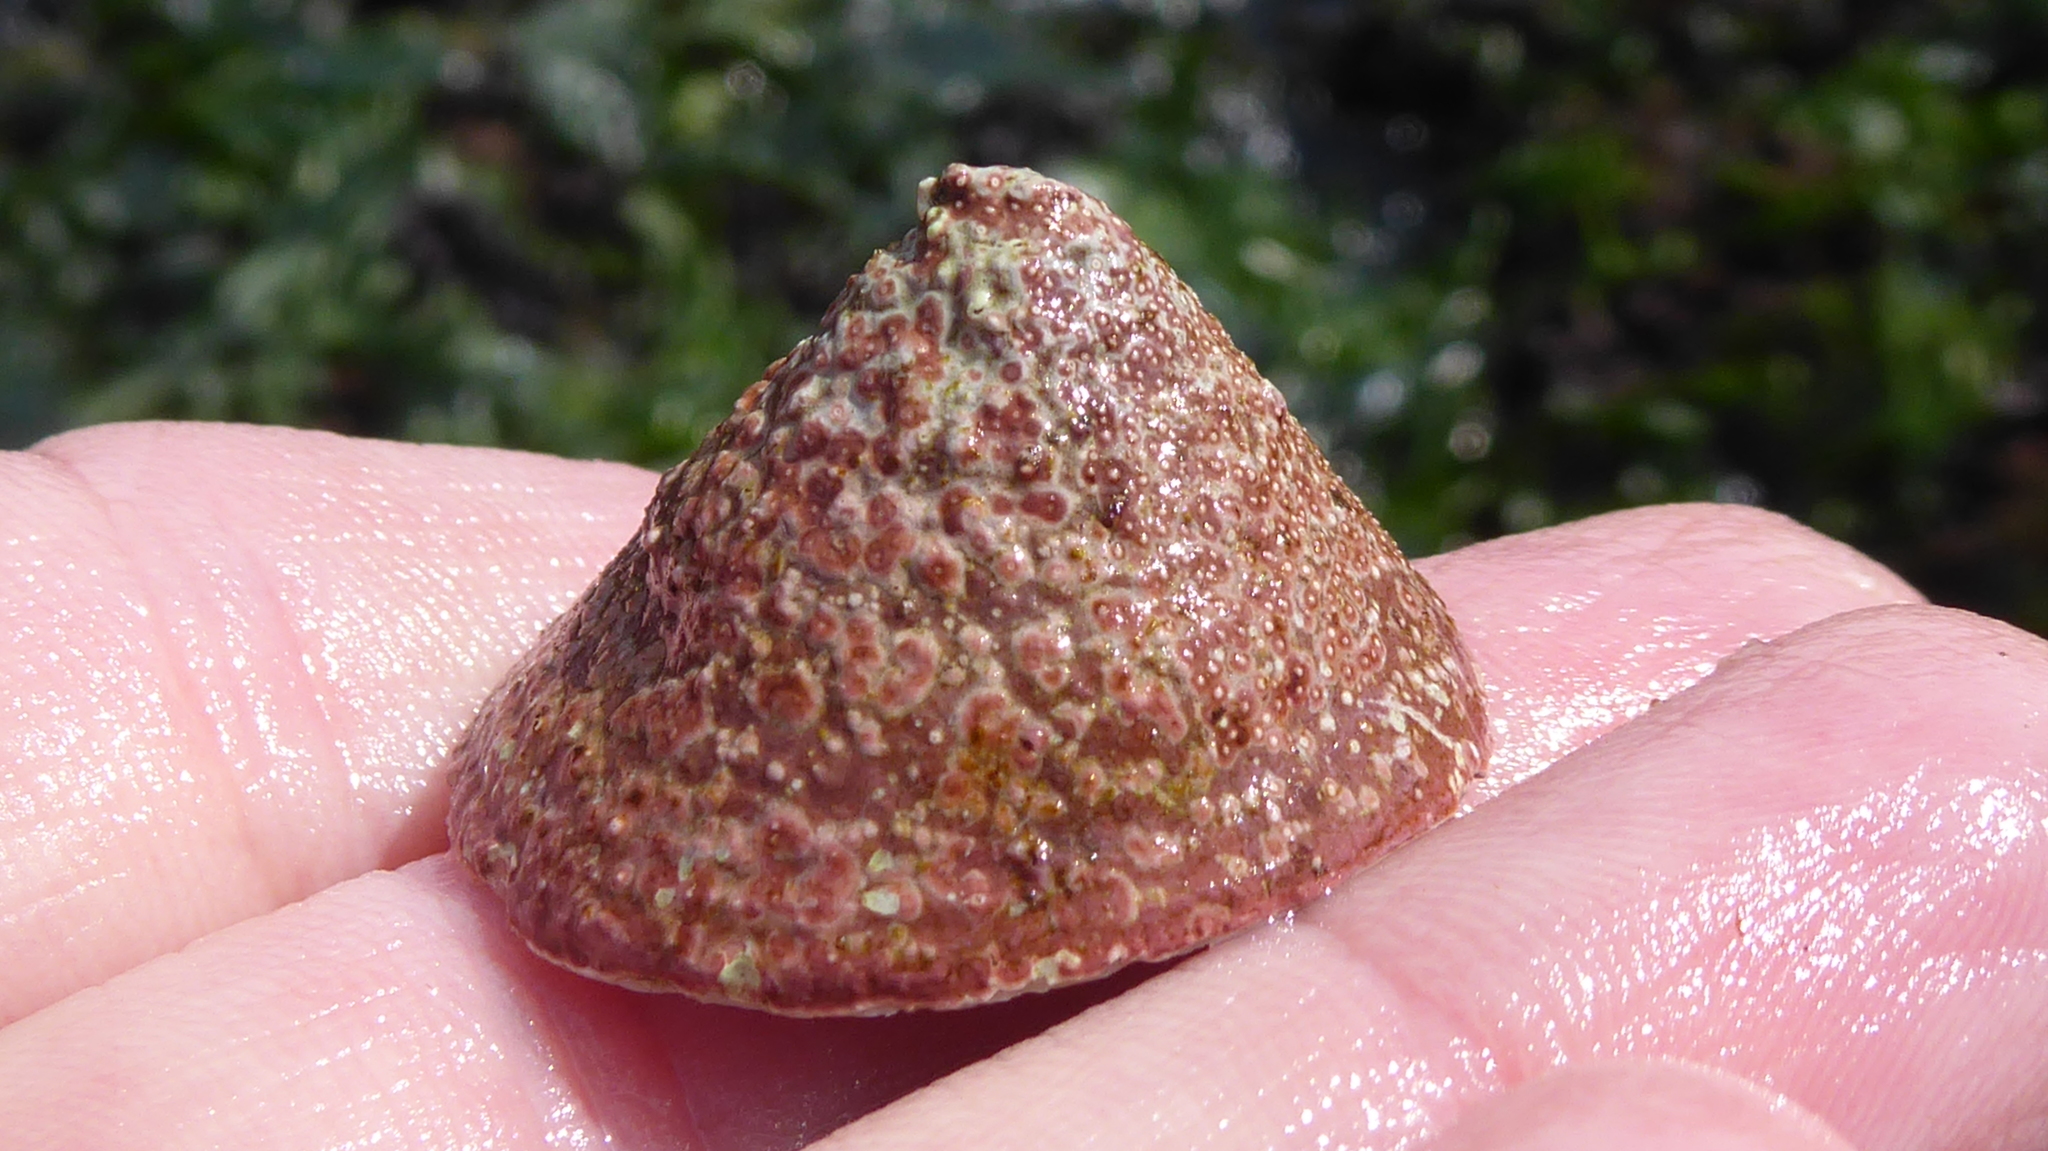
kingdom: Animalia
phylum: Mollusca
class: Gastropoda
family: Acmaeidae
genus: Acmaea
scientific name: Acmaea mitra
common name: Pacific white cap limpet
